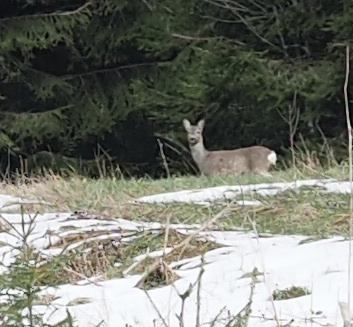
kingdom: Animalia
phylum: Chordata
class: Mammalia
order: Artiodactyla
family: Cervidae
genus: Capreolus
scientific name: Capreolus capreolus
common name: Western roe deer
